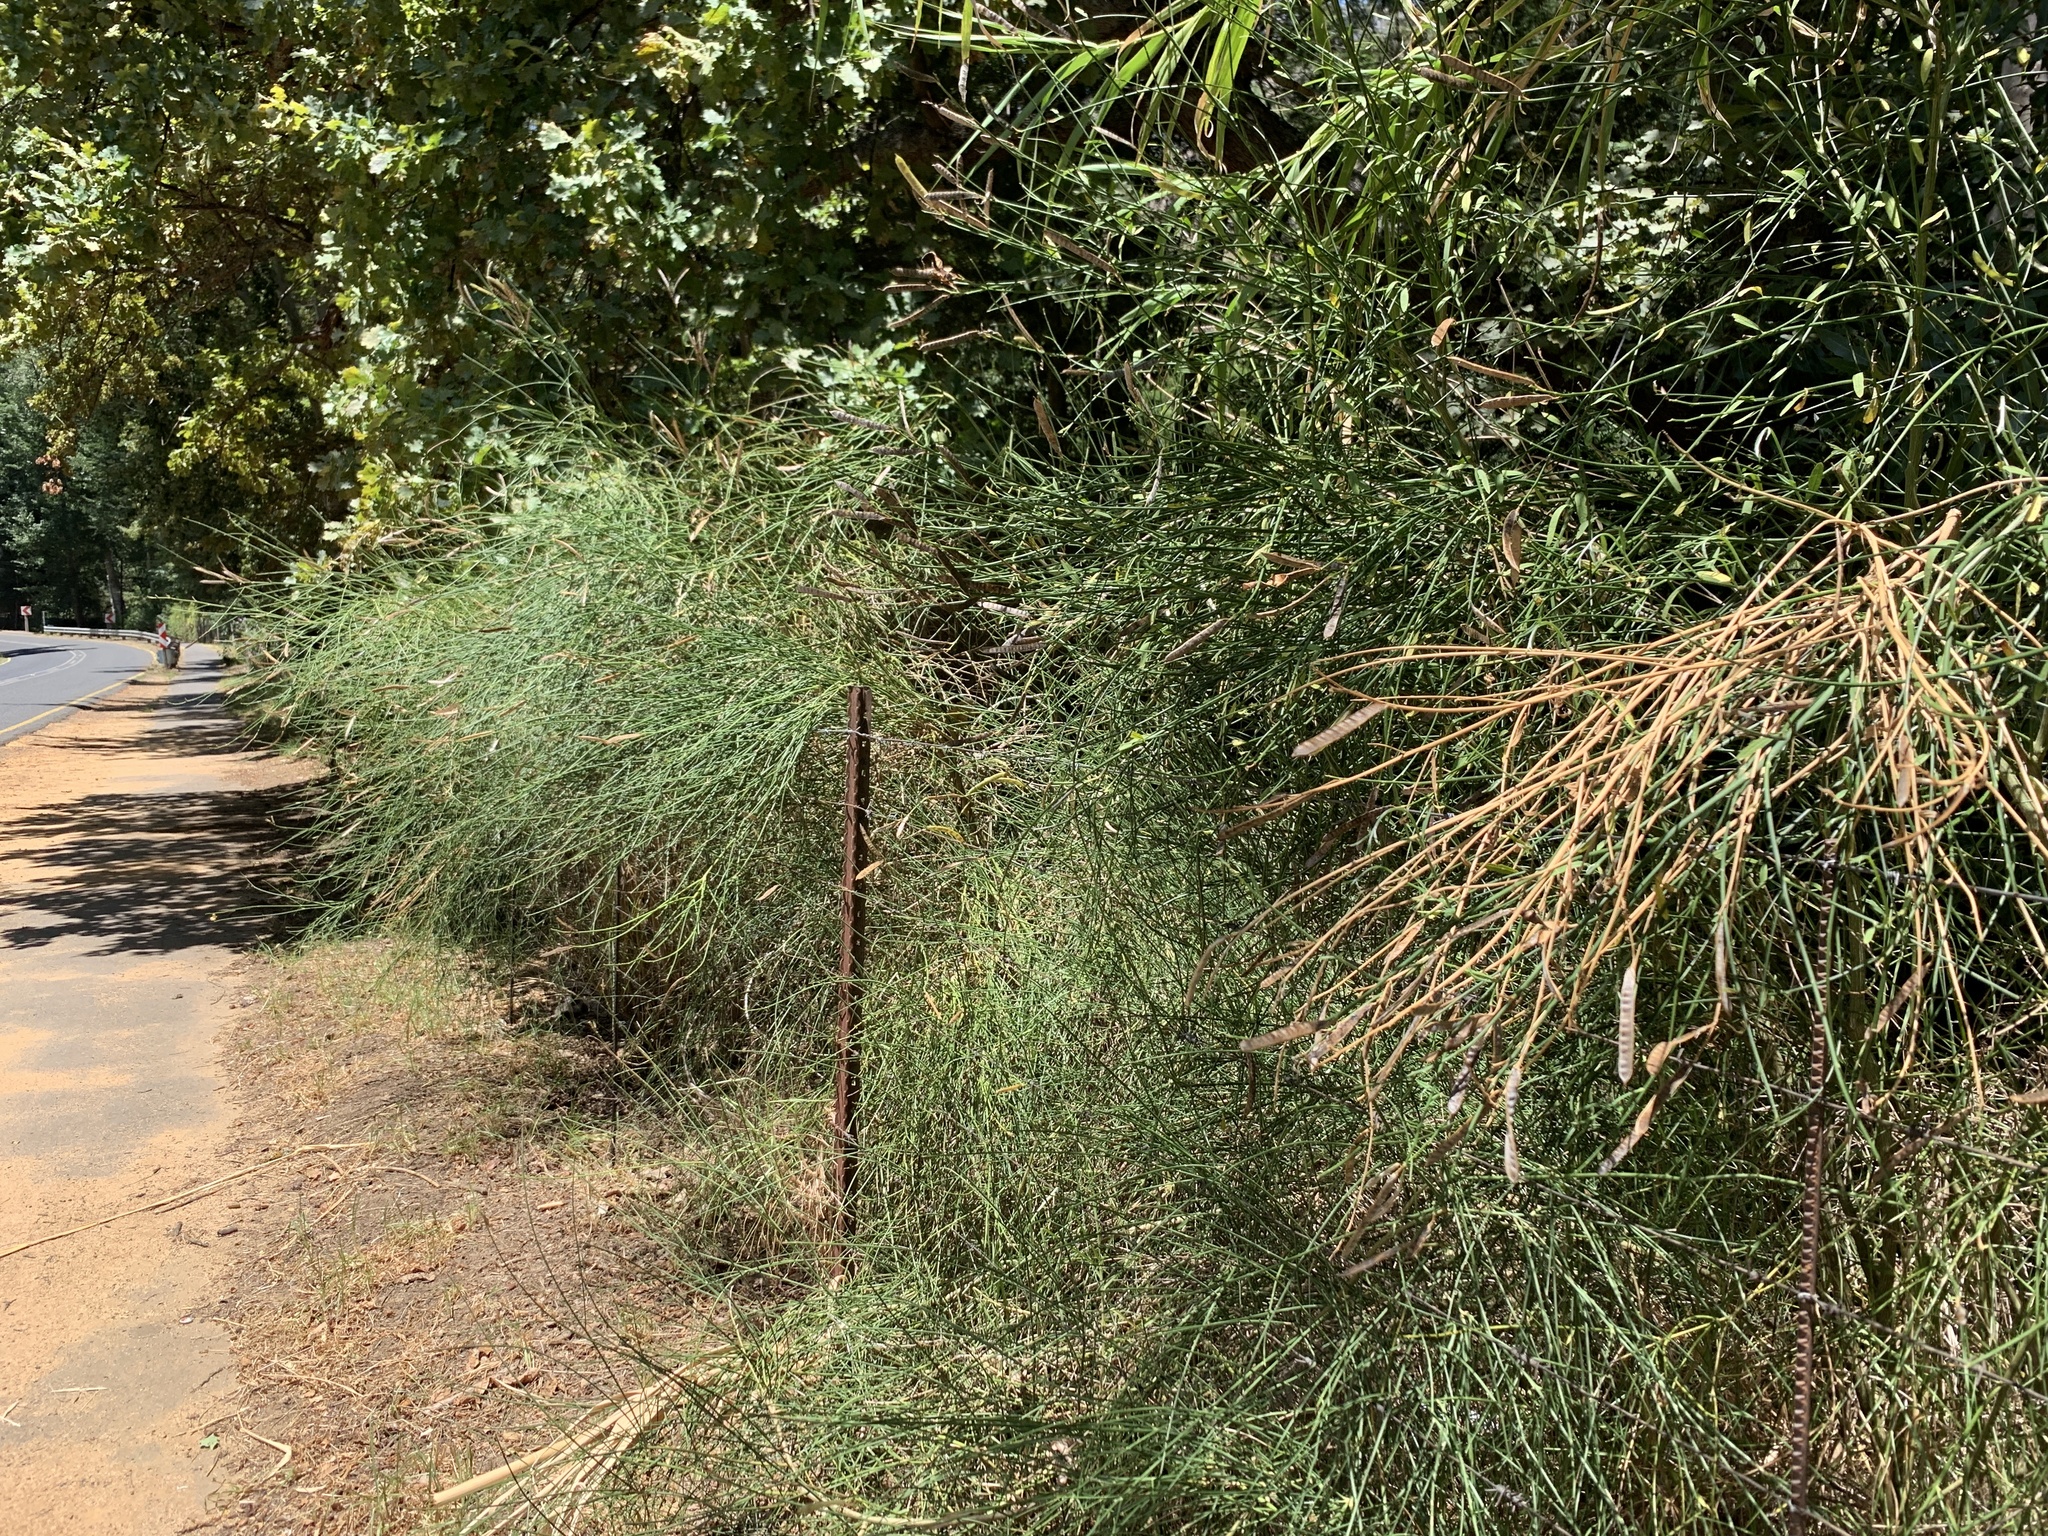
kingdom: Plantae
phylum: Tracheophyta
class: Magnoliopsida
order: Fabales
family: Fabaceae
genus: Spartium
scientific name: Spartium junceum
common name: Spanish broom
